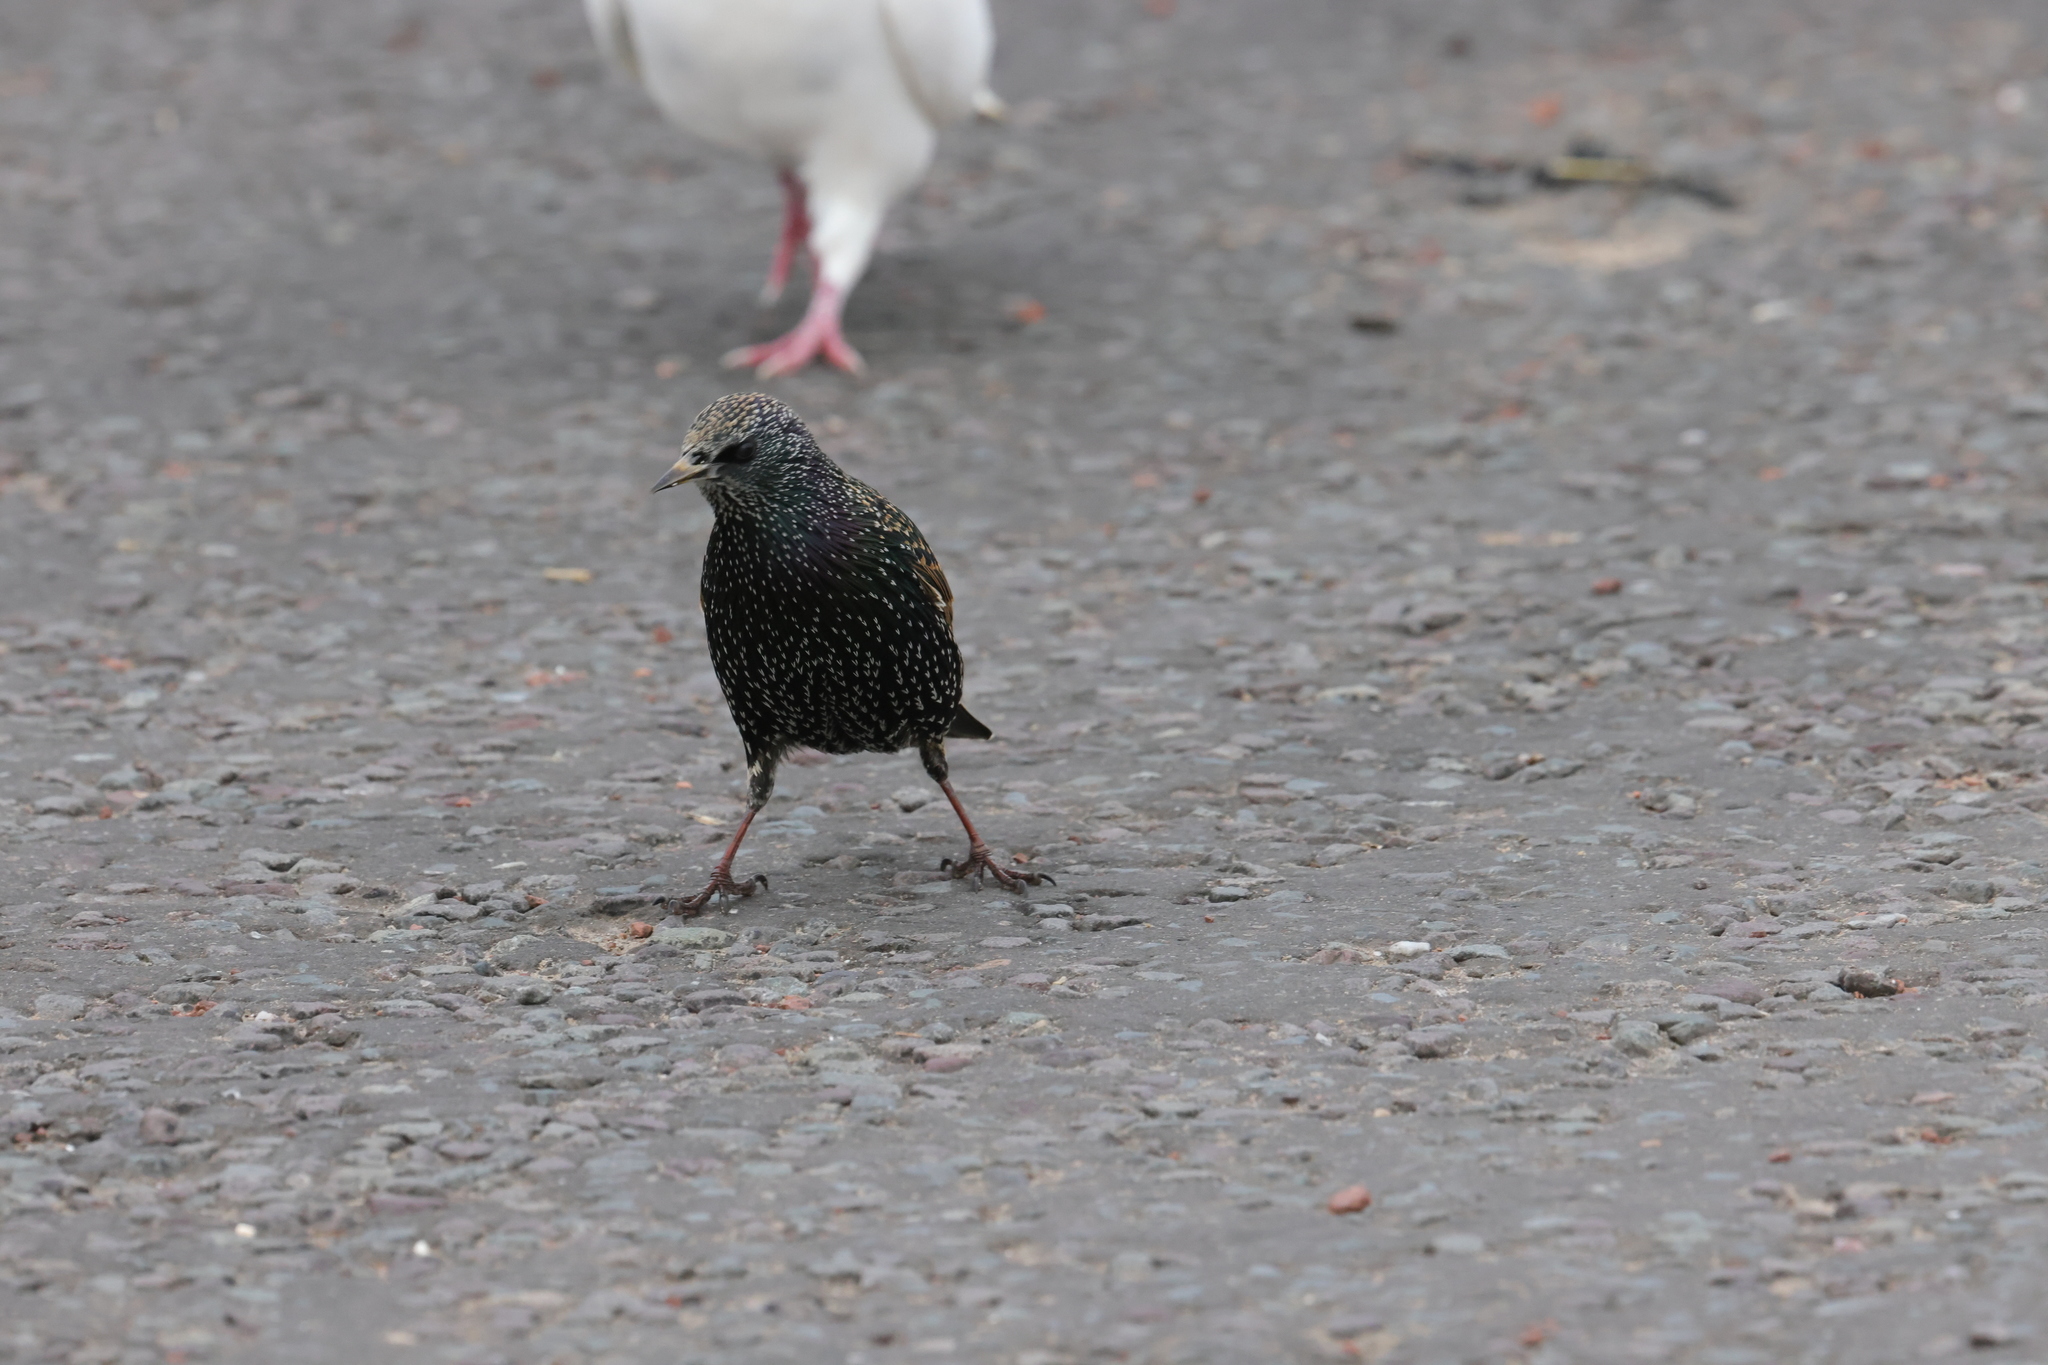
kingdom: Animalia
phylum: Chordata
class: Aves
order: Passeriformes
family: Sturnidae
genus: Sturnus
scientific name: Sturnus vulgaris
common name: Common starling
